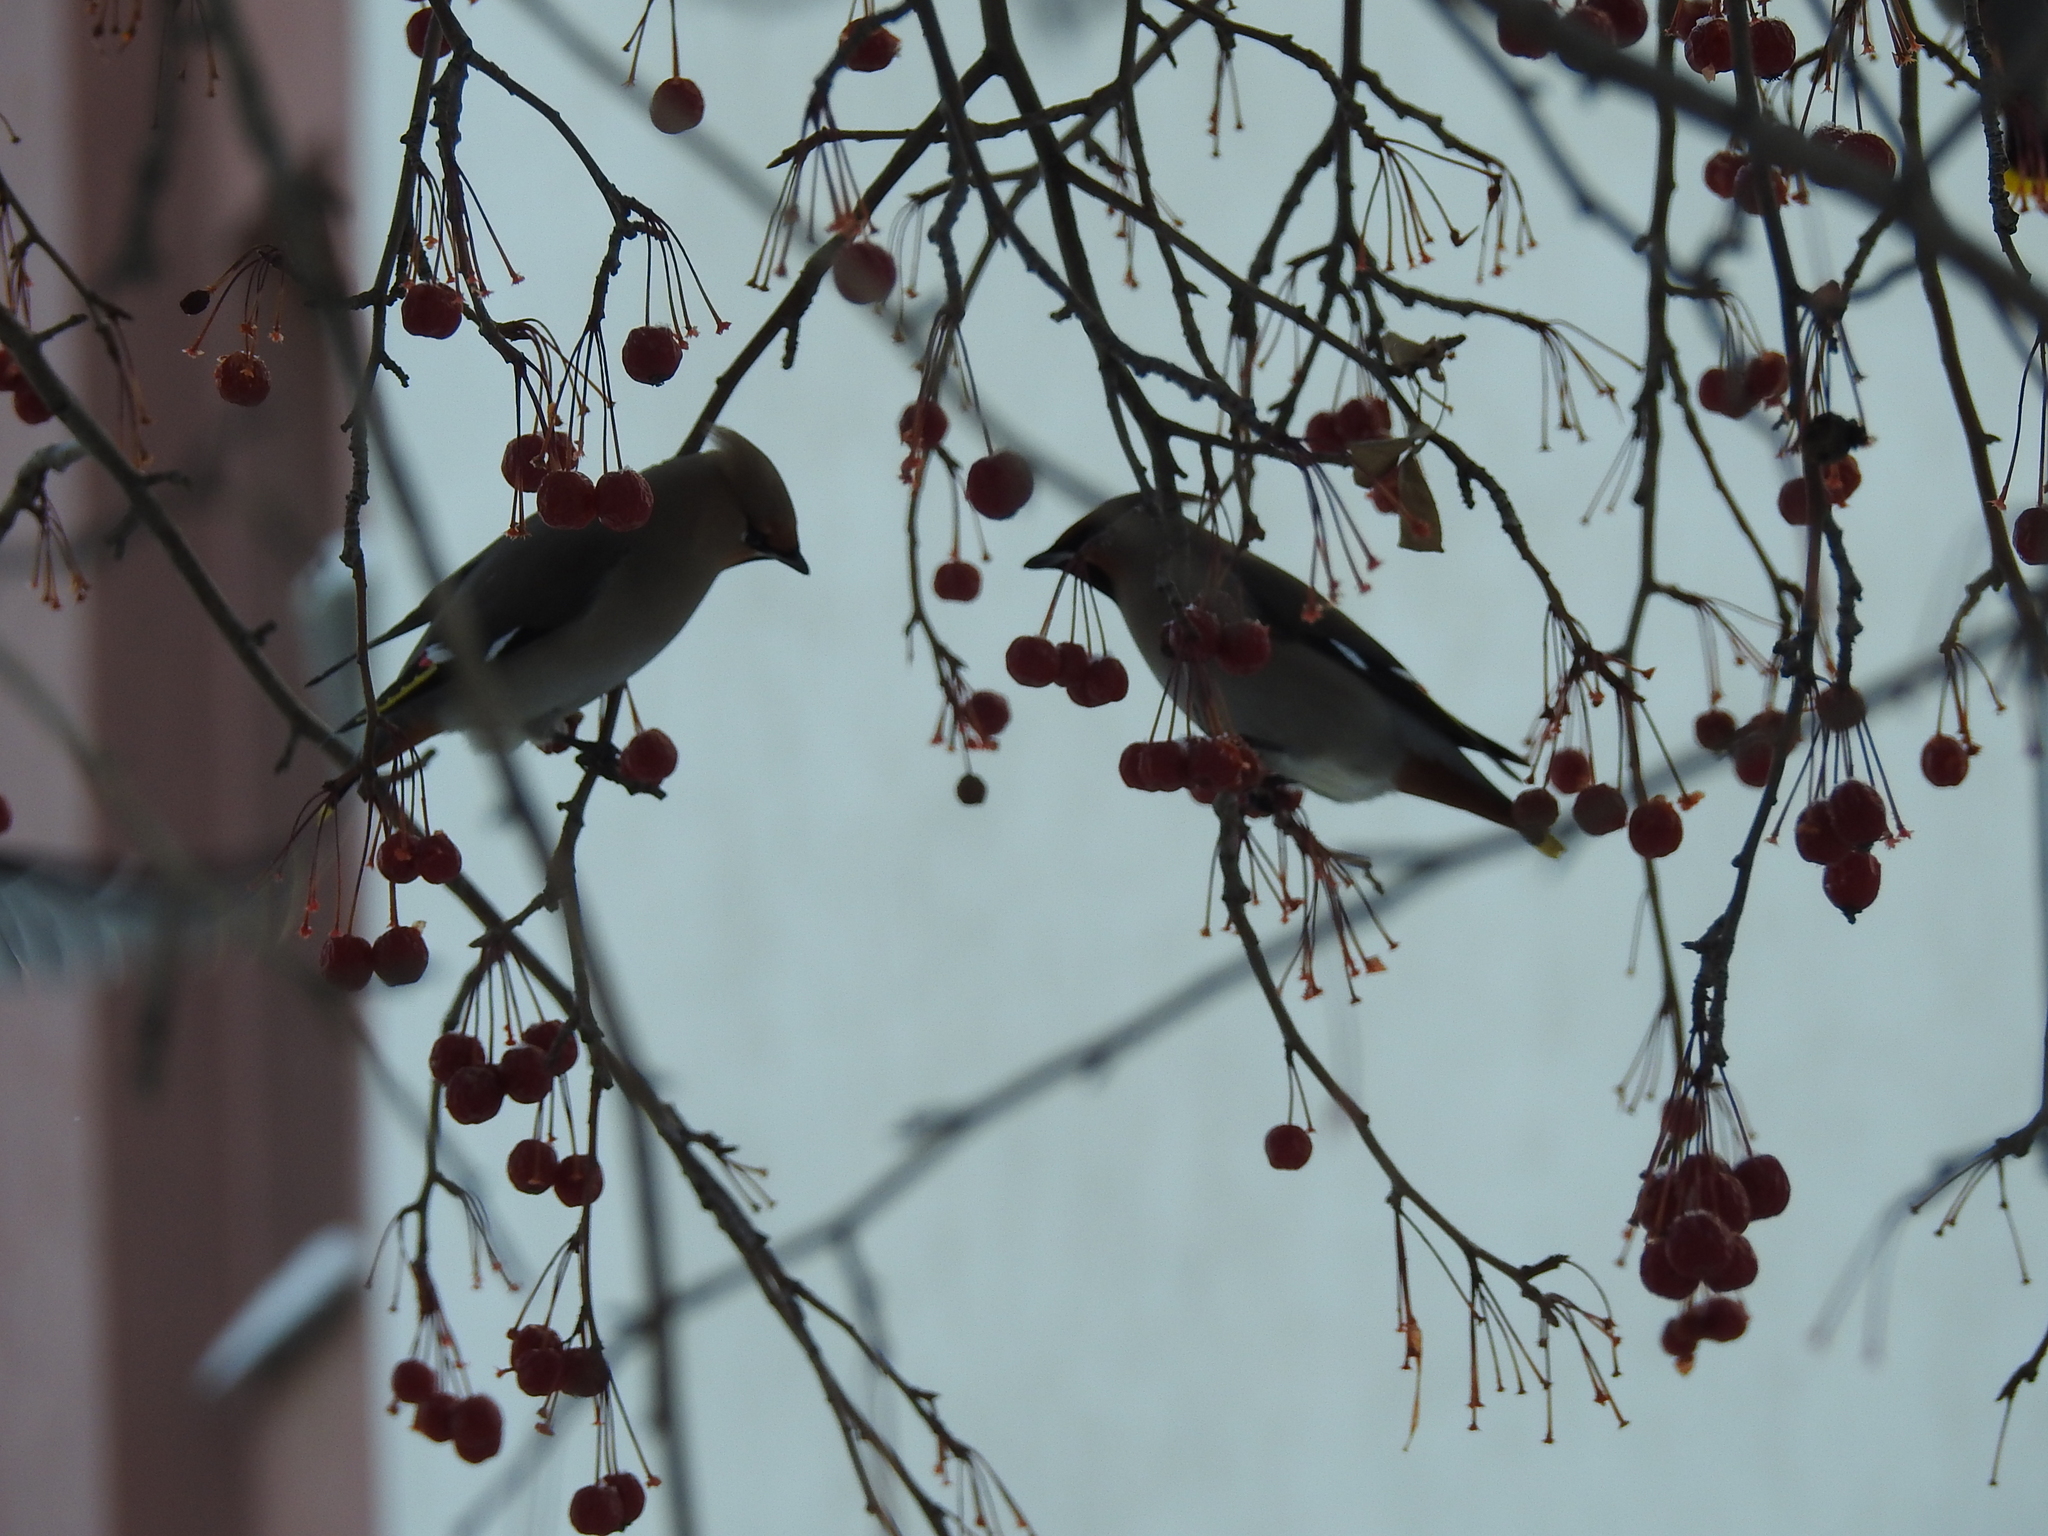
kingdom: Animalia
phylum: Chordata
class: Aves
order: Passeriformes
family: Bombycillidae
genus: Bombycilla
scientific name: Bombycilla garrulus
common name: Bohemian waxwing
